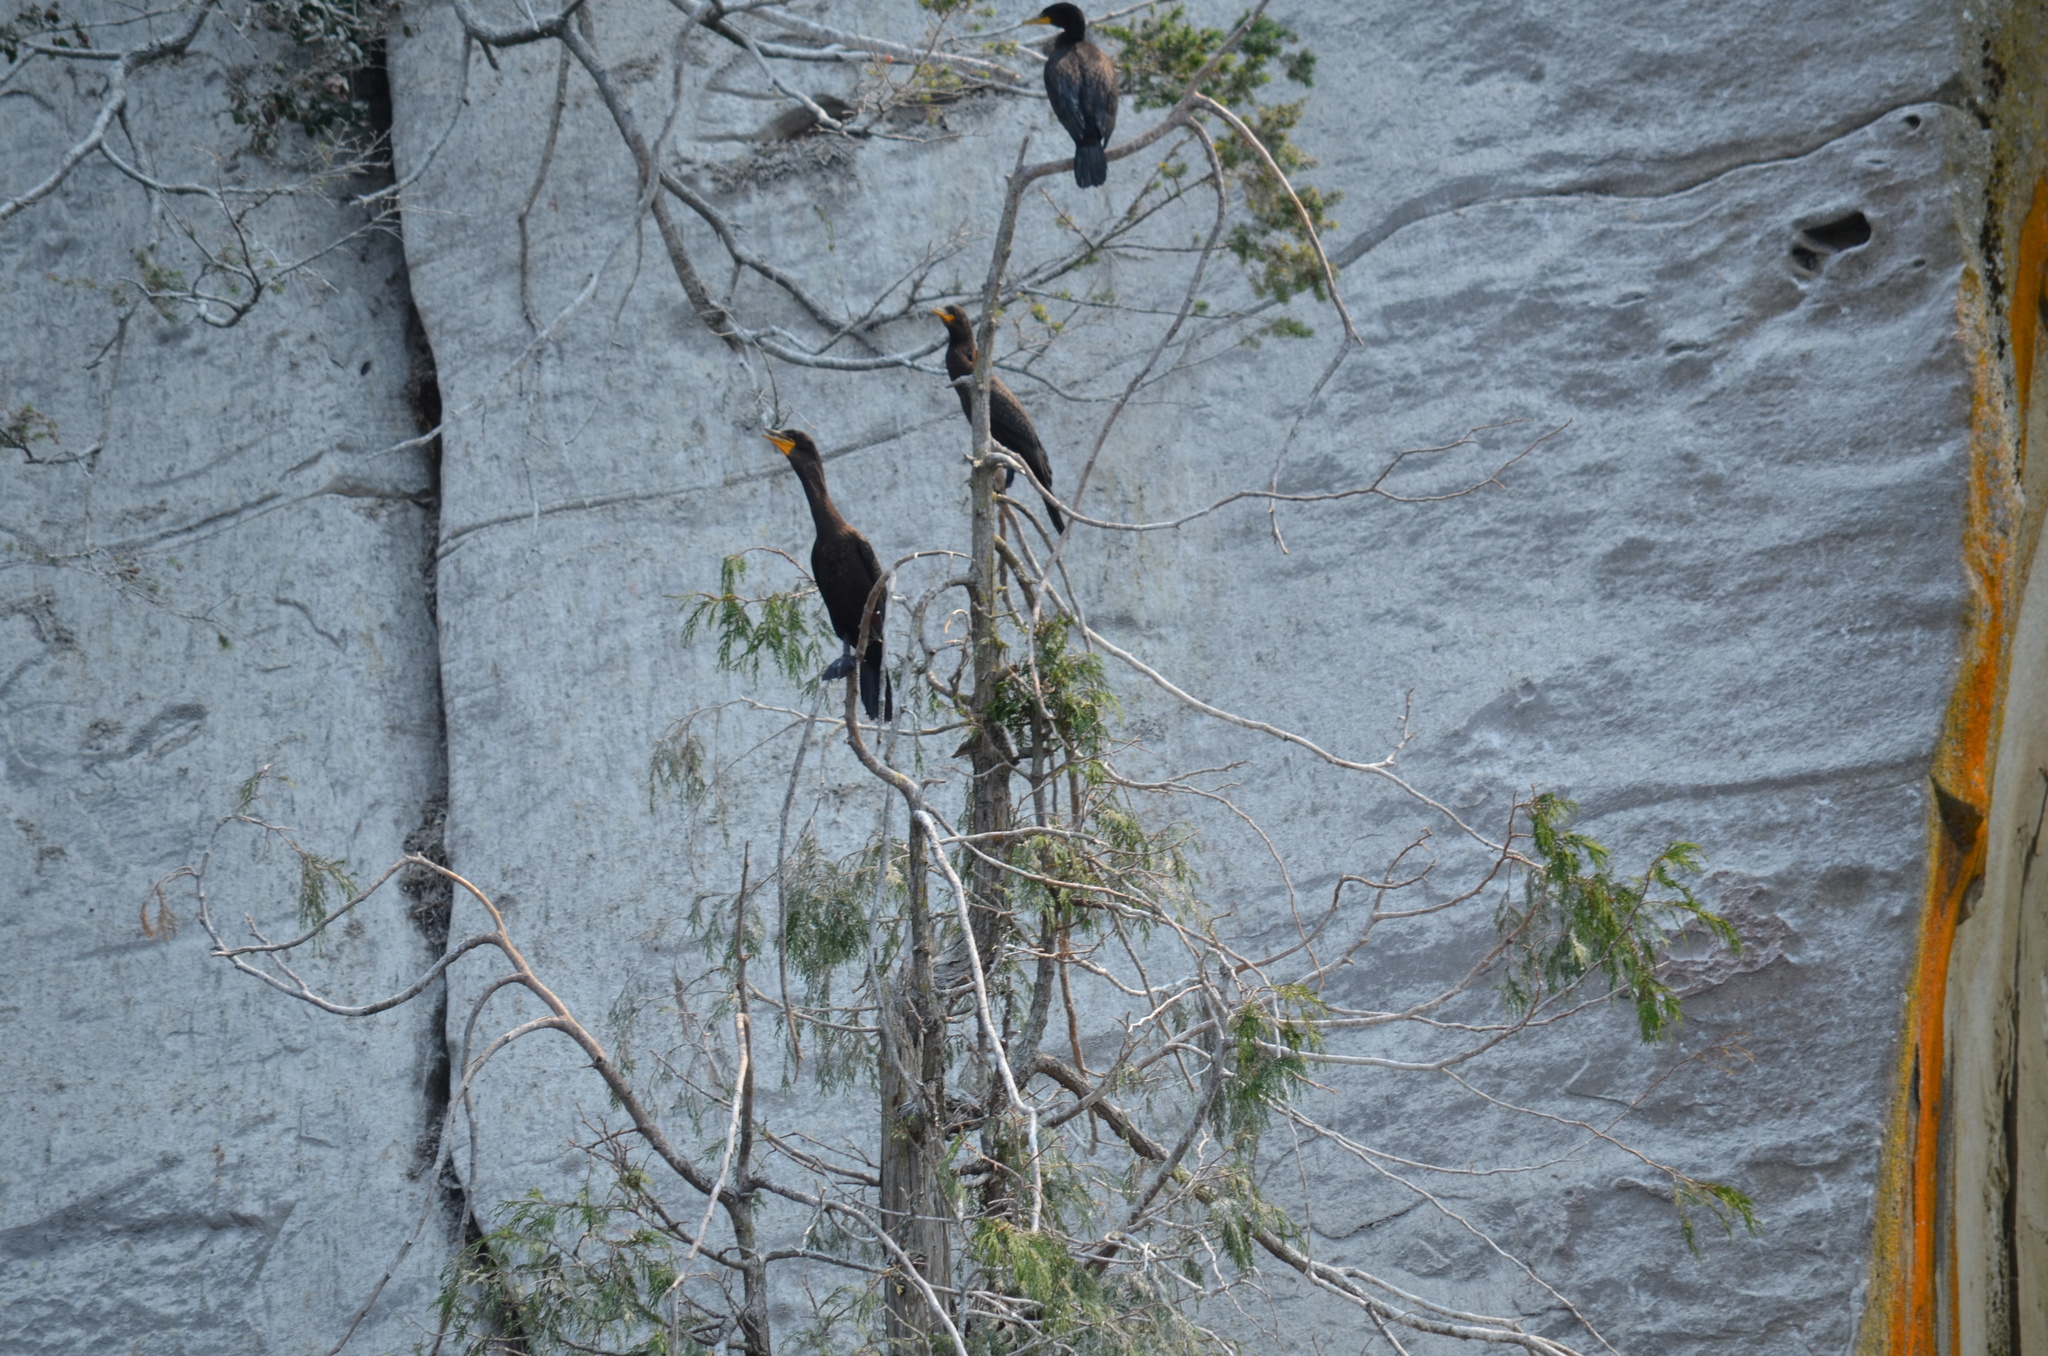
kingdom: Animalia
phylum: Chordata
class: Aves
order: Suliformes
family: Phalacrocoracidae
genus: Phalacrocorax
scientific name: Phalacrocorax auritus
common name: Double-crested cormorant
